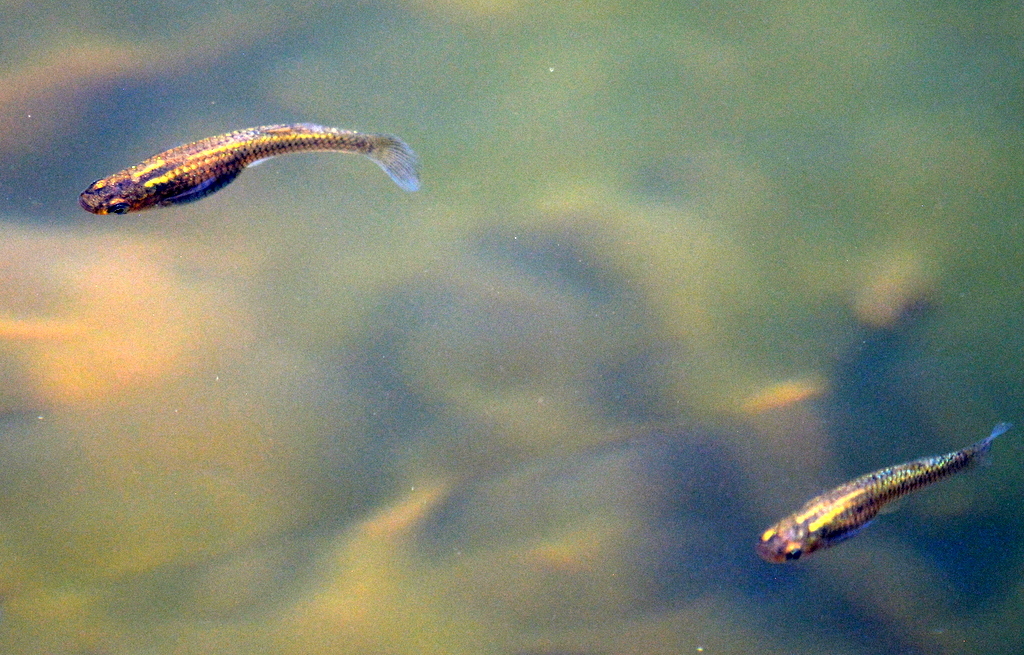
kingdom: Animalia
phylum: Chordata
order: Cyprinodontiformes
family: Poeciliidae
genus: Gambusia
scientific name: Gambusia affinis
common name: Mosquitofish
